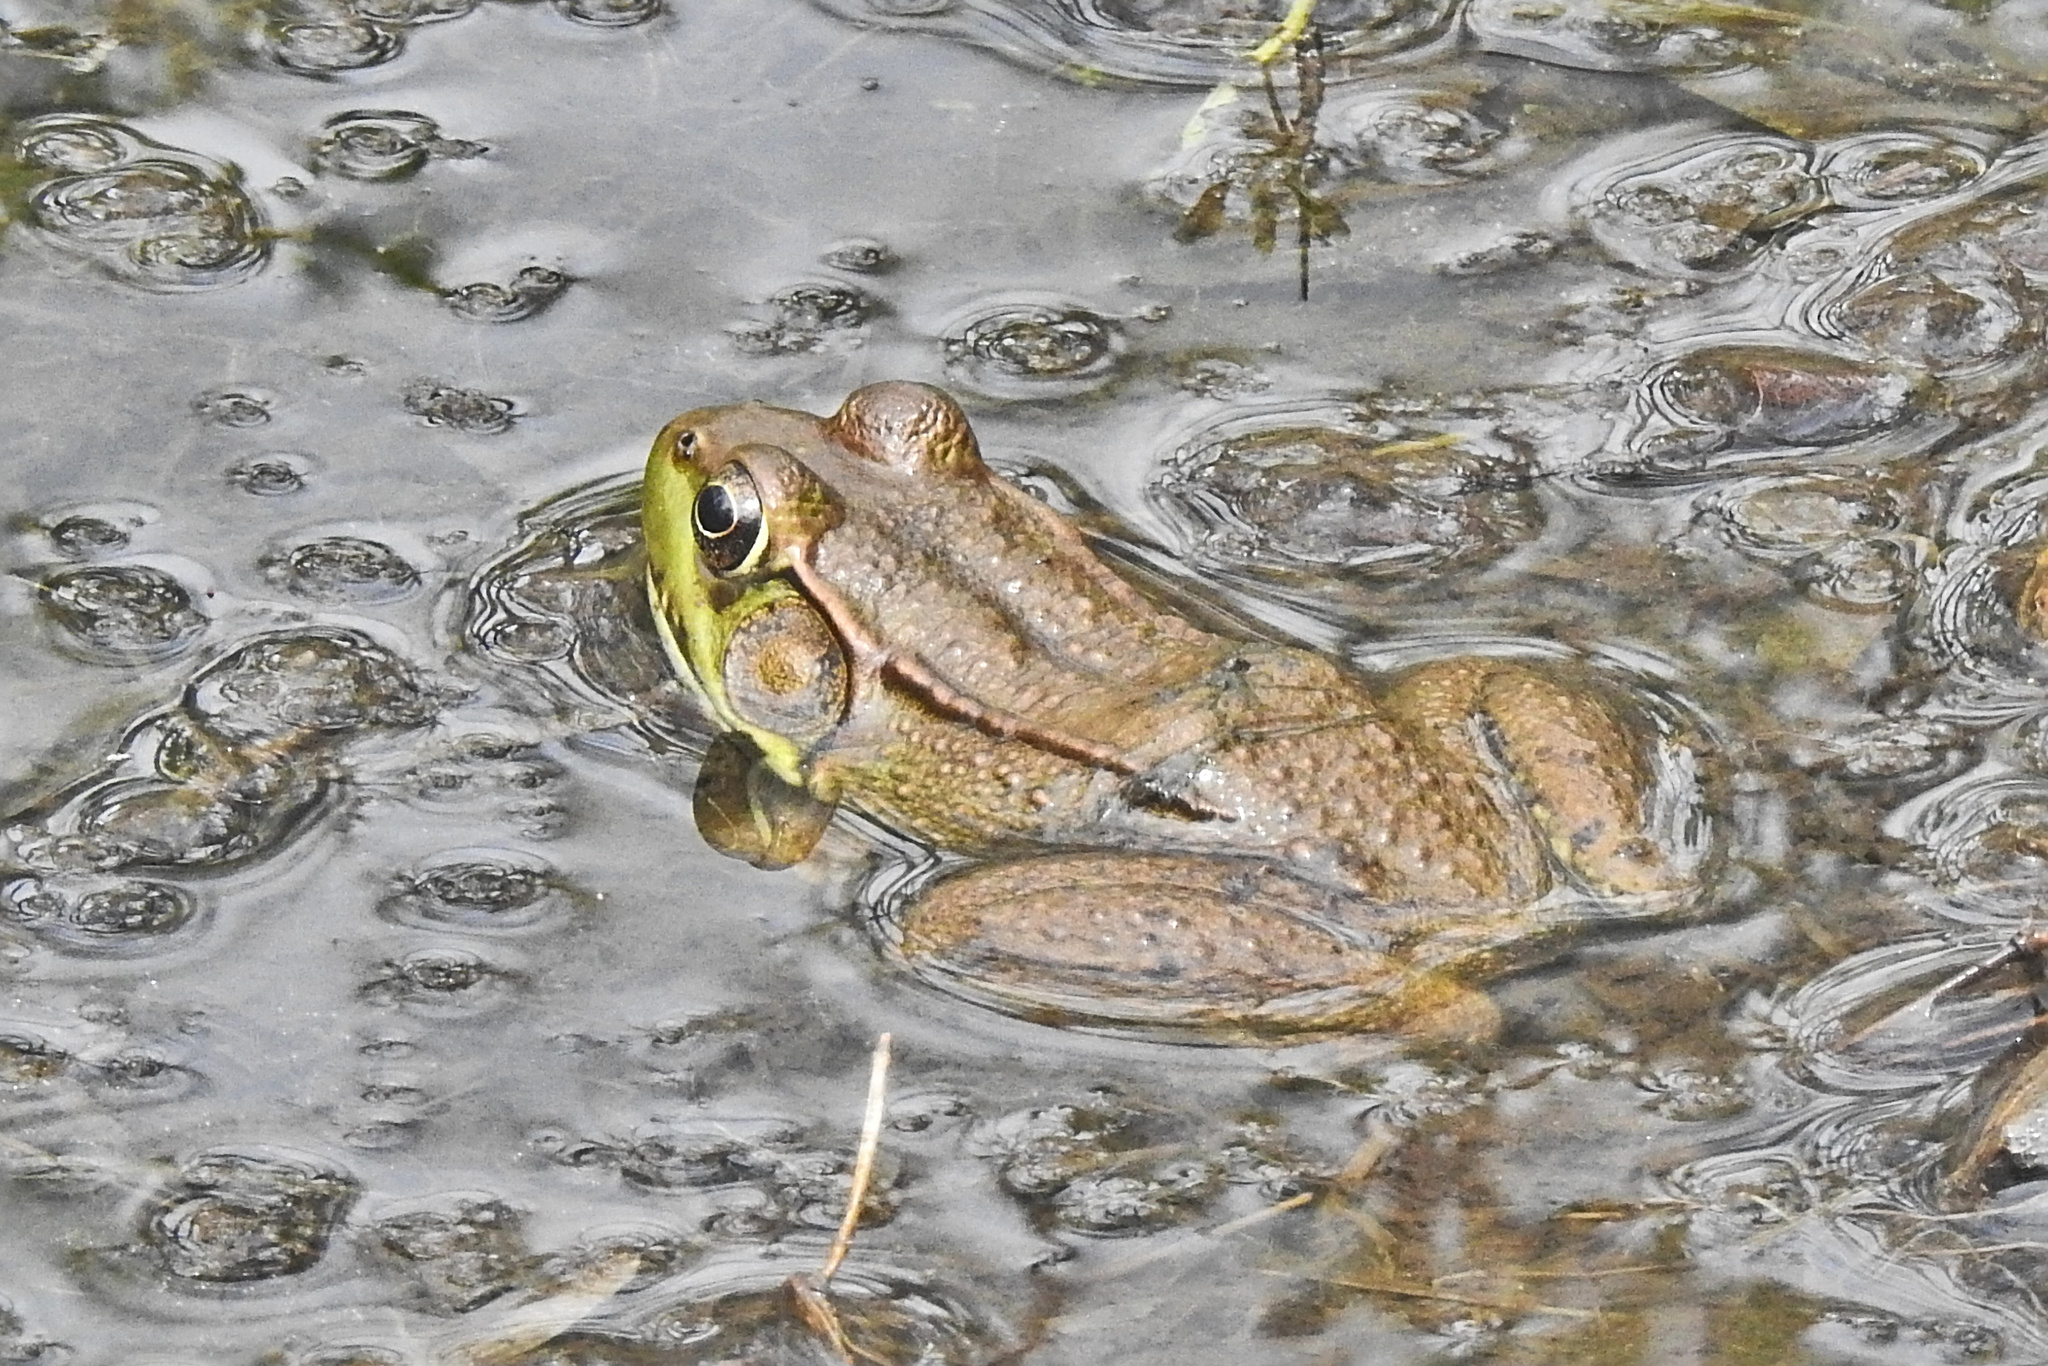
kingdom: Animalia
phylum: Chordata
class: Amphibia
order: Anura
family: Ranidae
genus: Lithobates
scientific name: Lithobates clamitans
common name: Green frog
